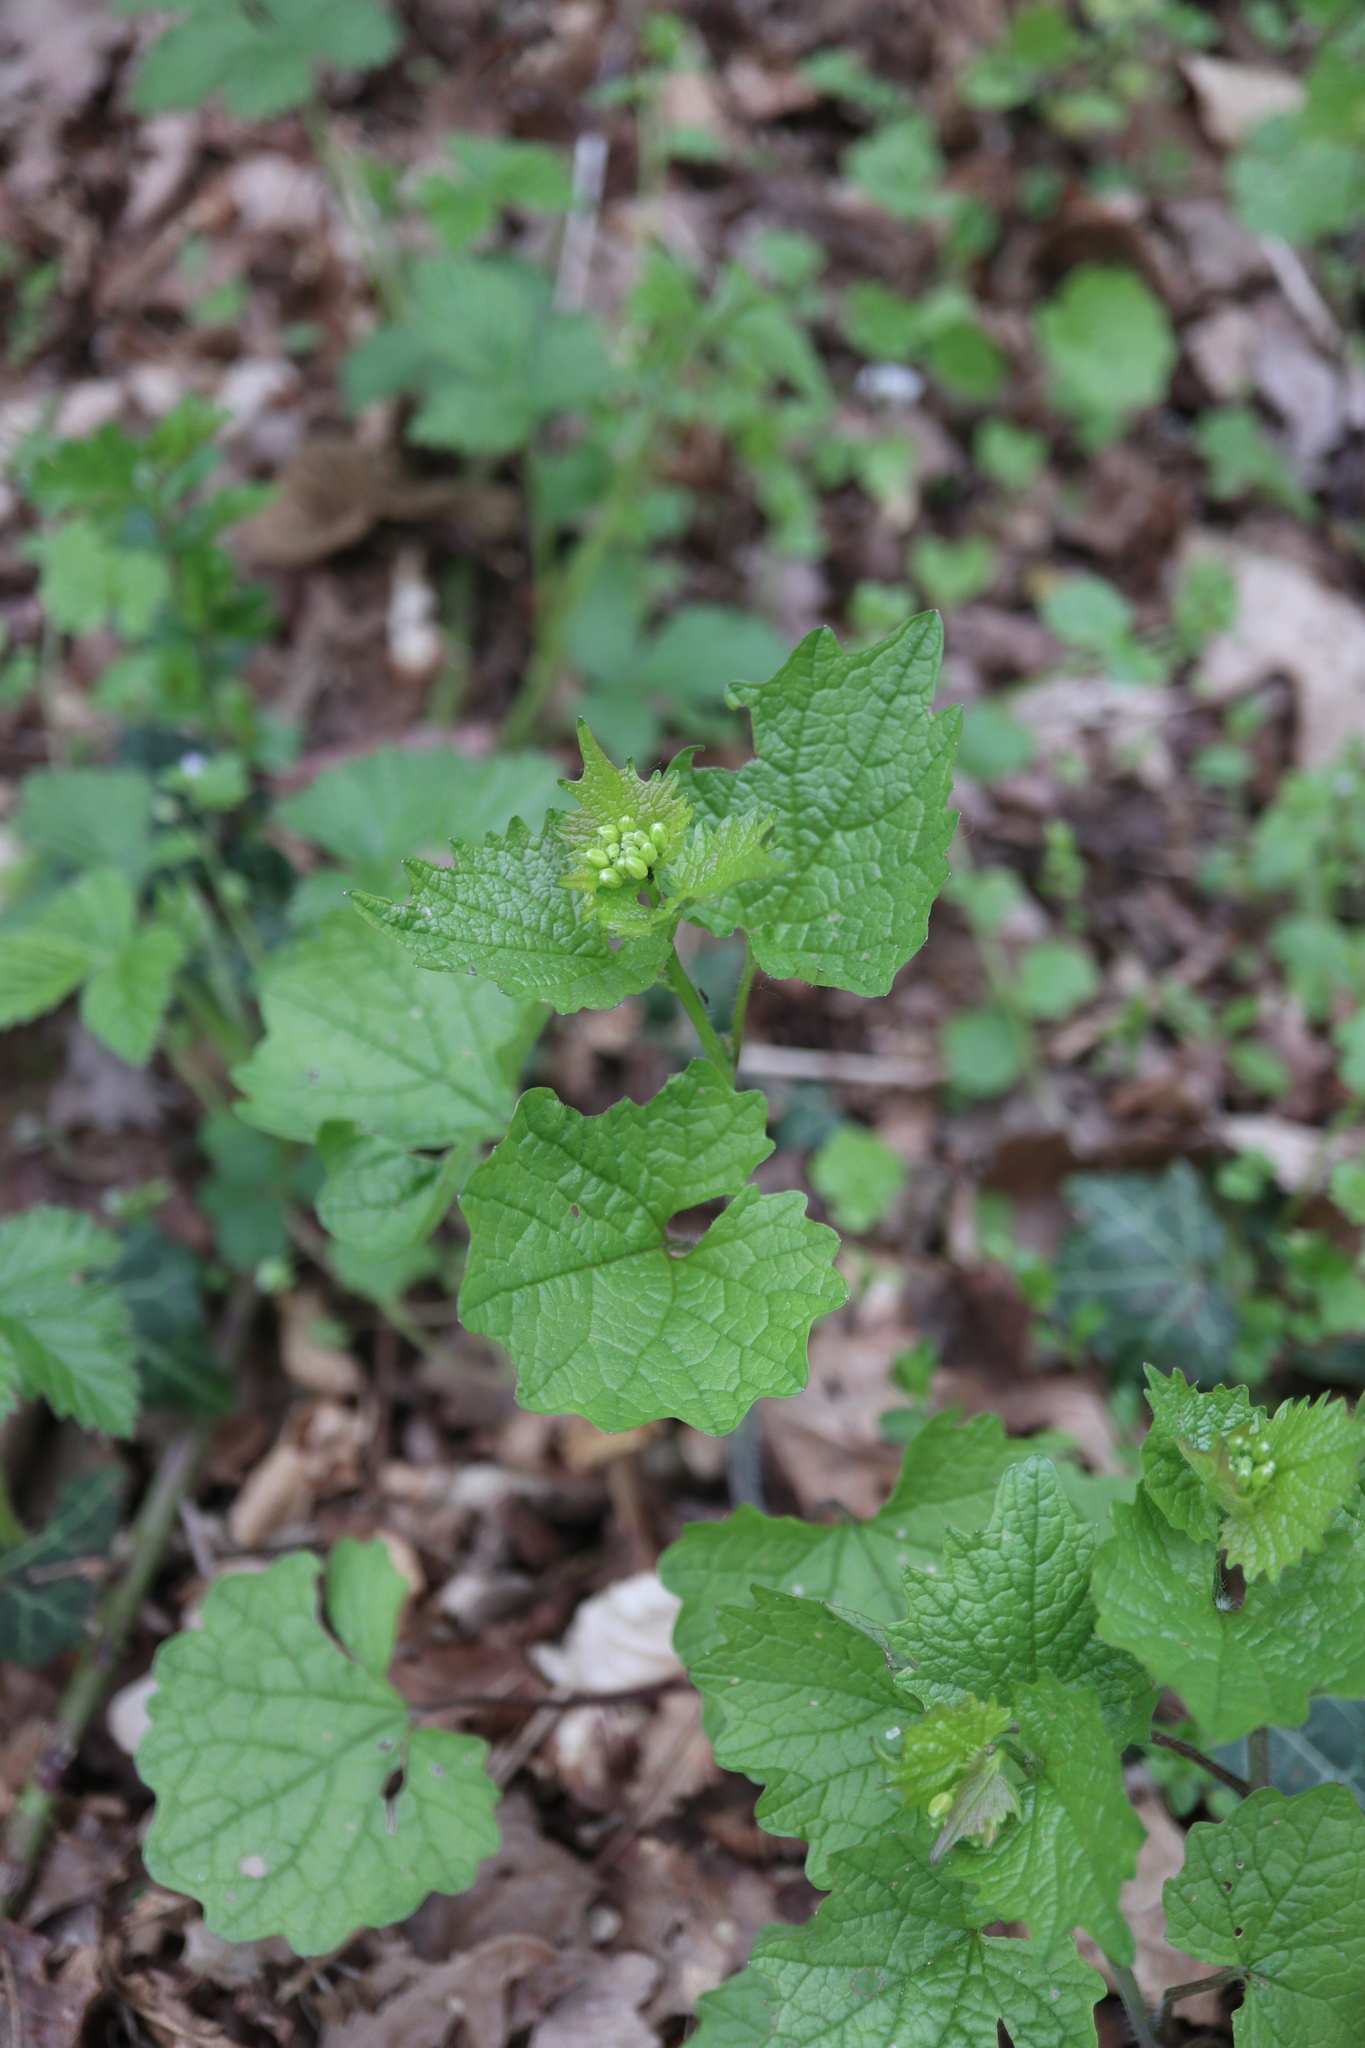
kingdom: Plantae
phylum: Tracheophyta
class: Magnoliopsida
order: Brassicales
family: Brassicaceae
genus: Alliaria
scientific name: Alliaria petiolata
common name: Garlic mustard
